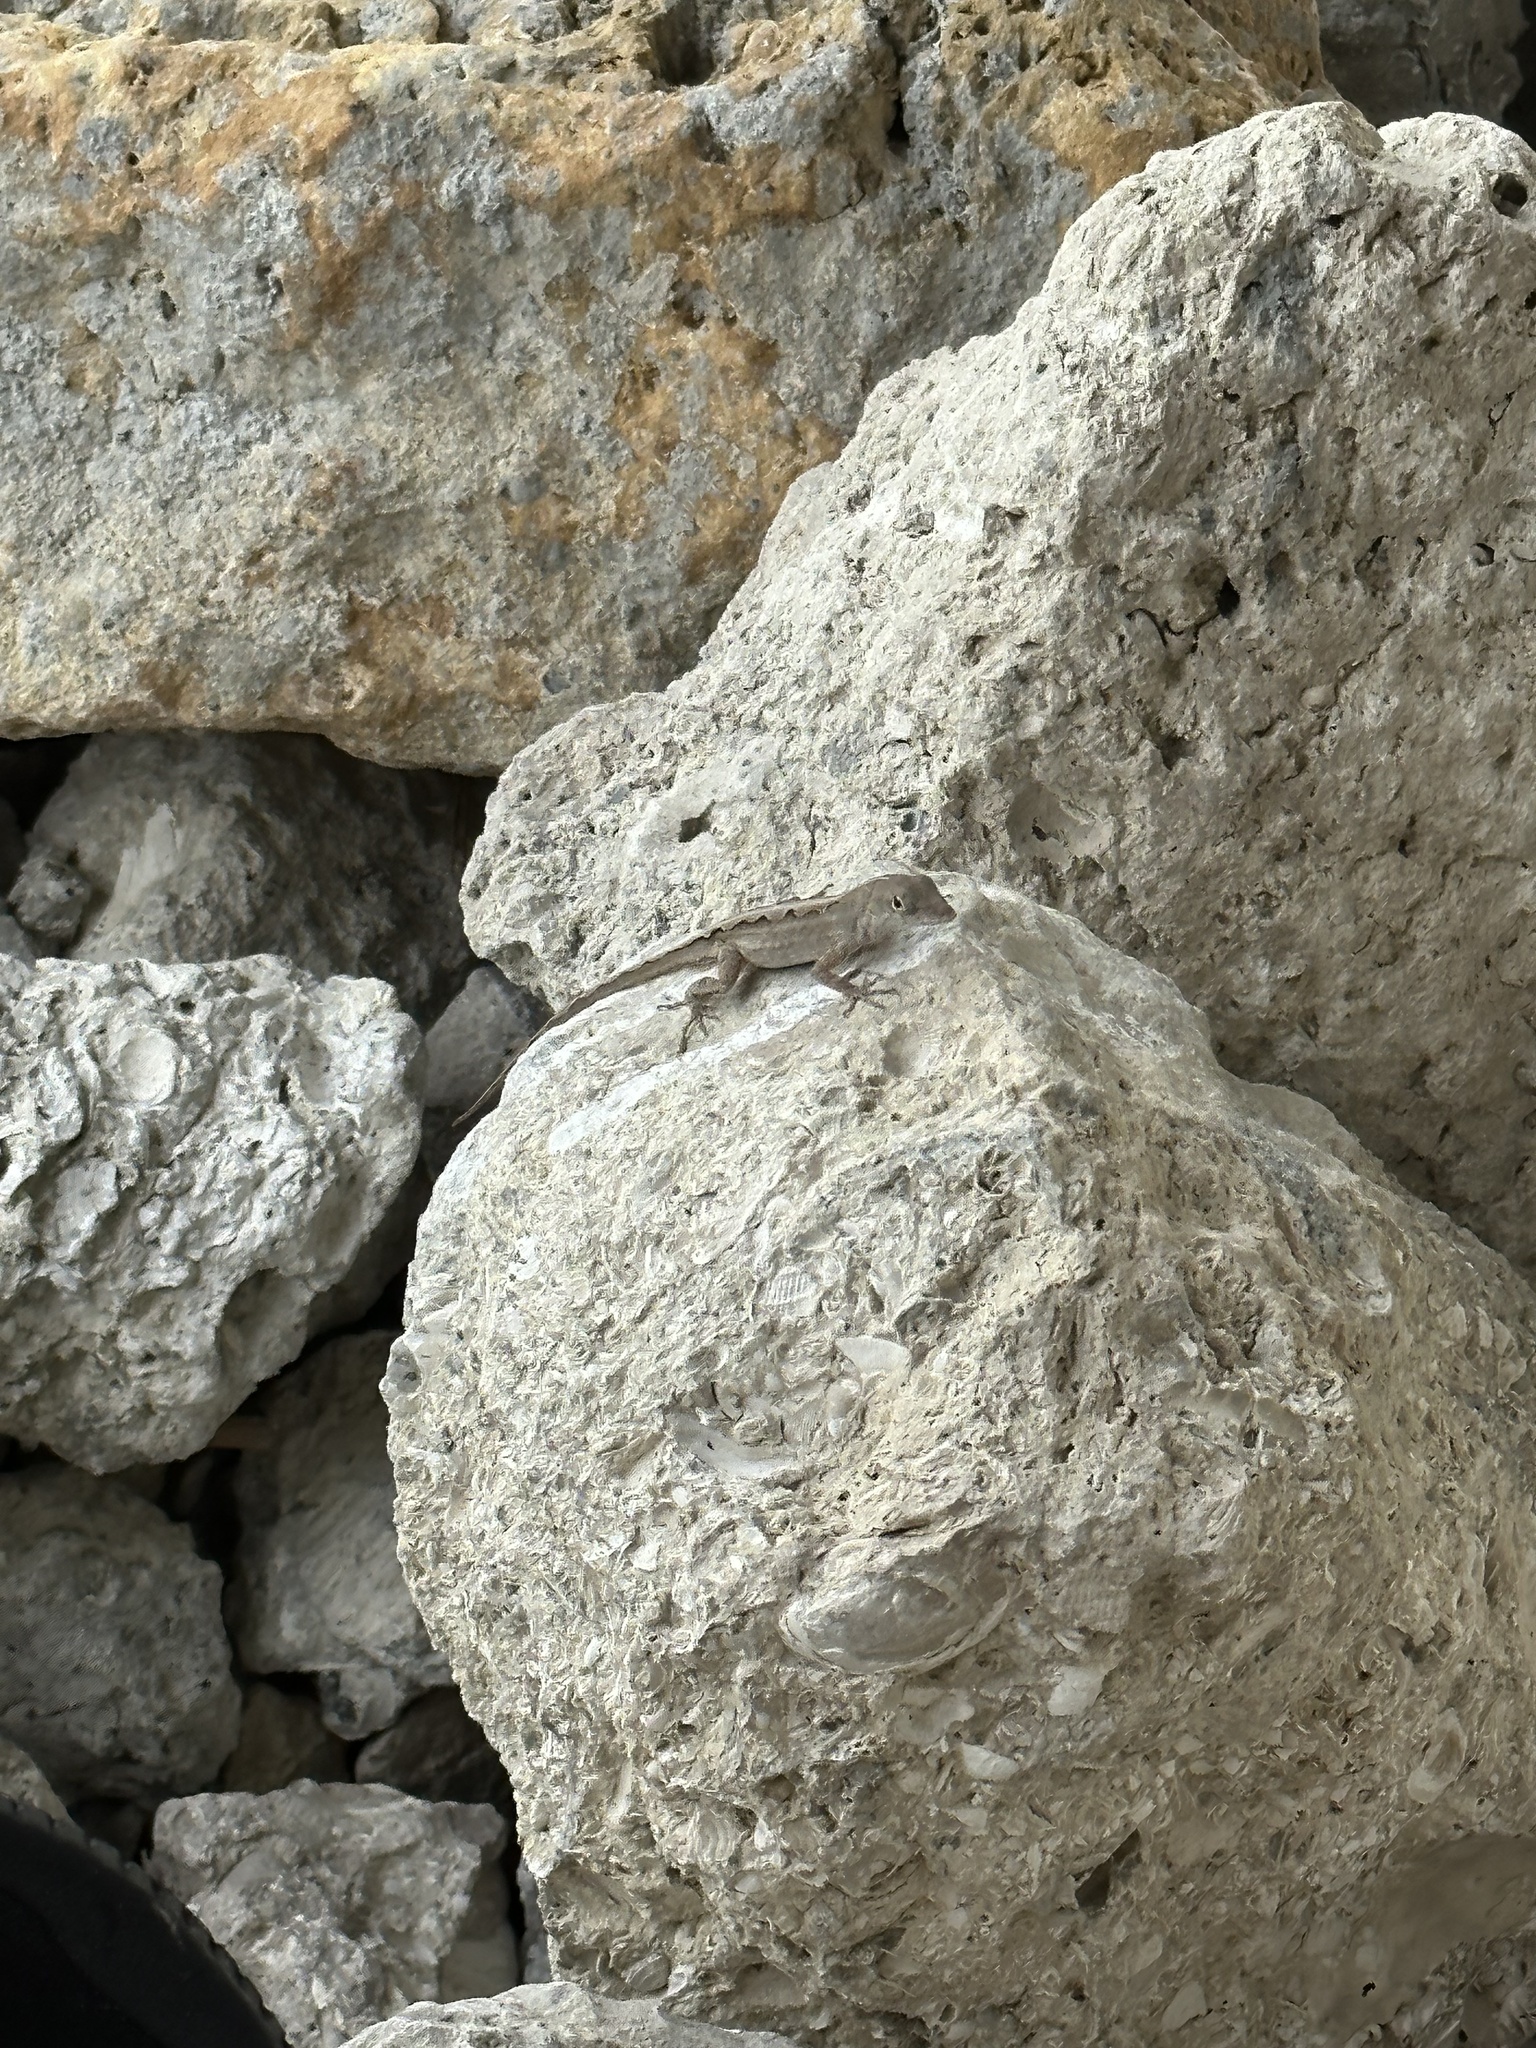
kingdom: Animalia
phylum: Chordata
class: Squamata
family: Dactyloidae
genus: Anolis
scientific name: Anolis sagrei
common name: Brown anole
